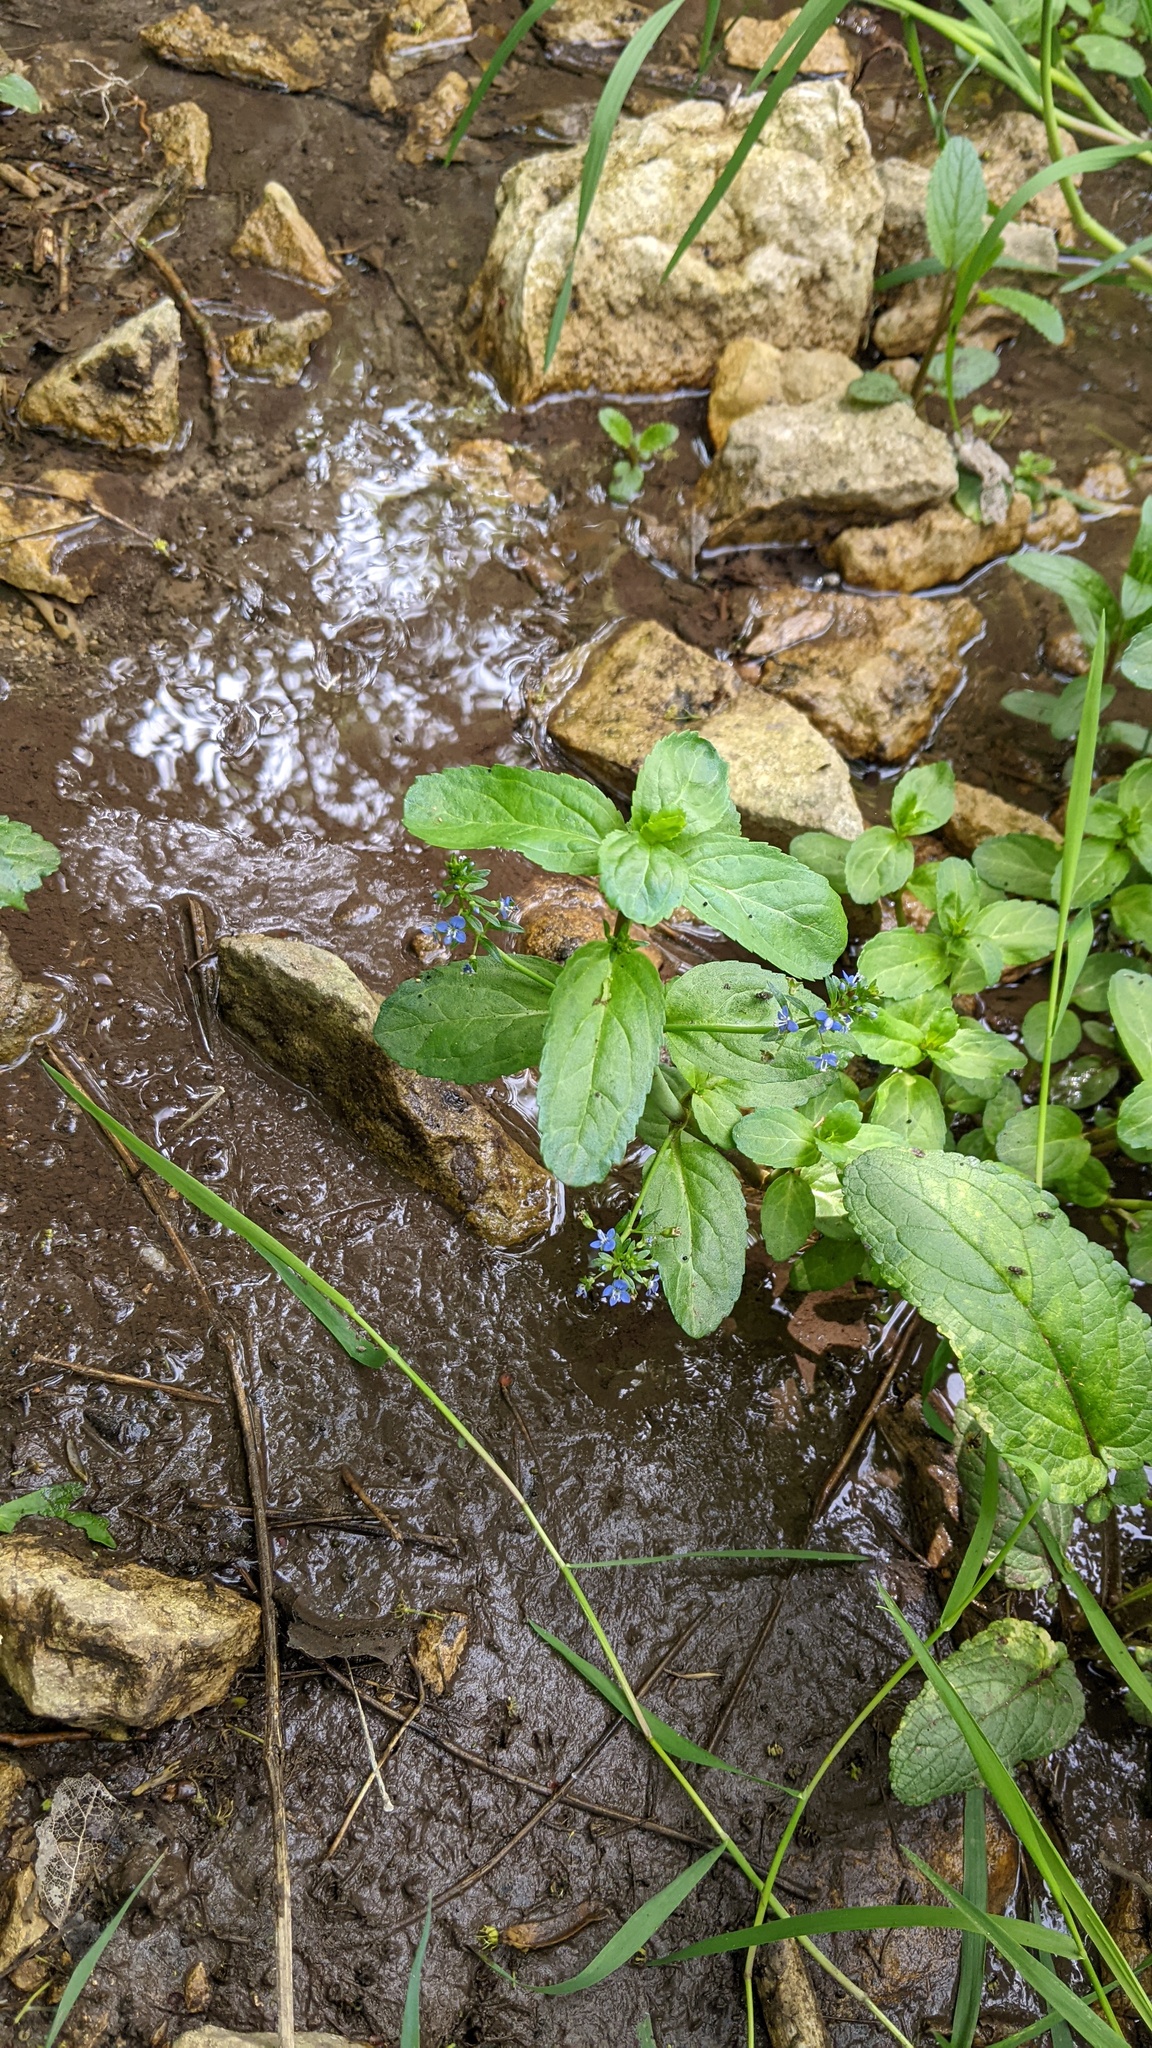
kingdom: Plantae
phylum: Tracheophyta
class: Magnoliopsida
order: Lamiales
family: Plantaginaceae
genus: Veronica
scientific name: Veronica beccabunga
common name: Brooklime
